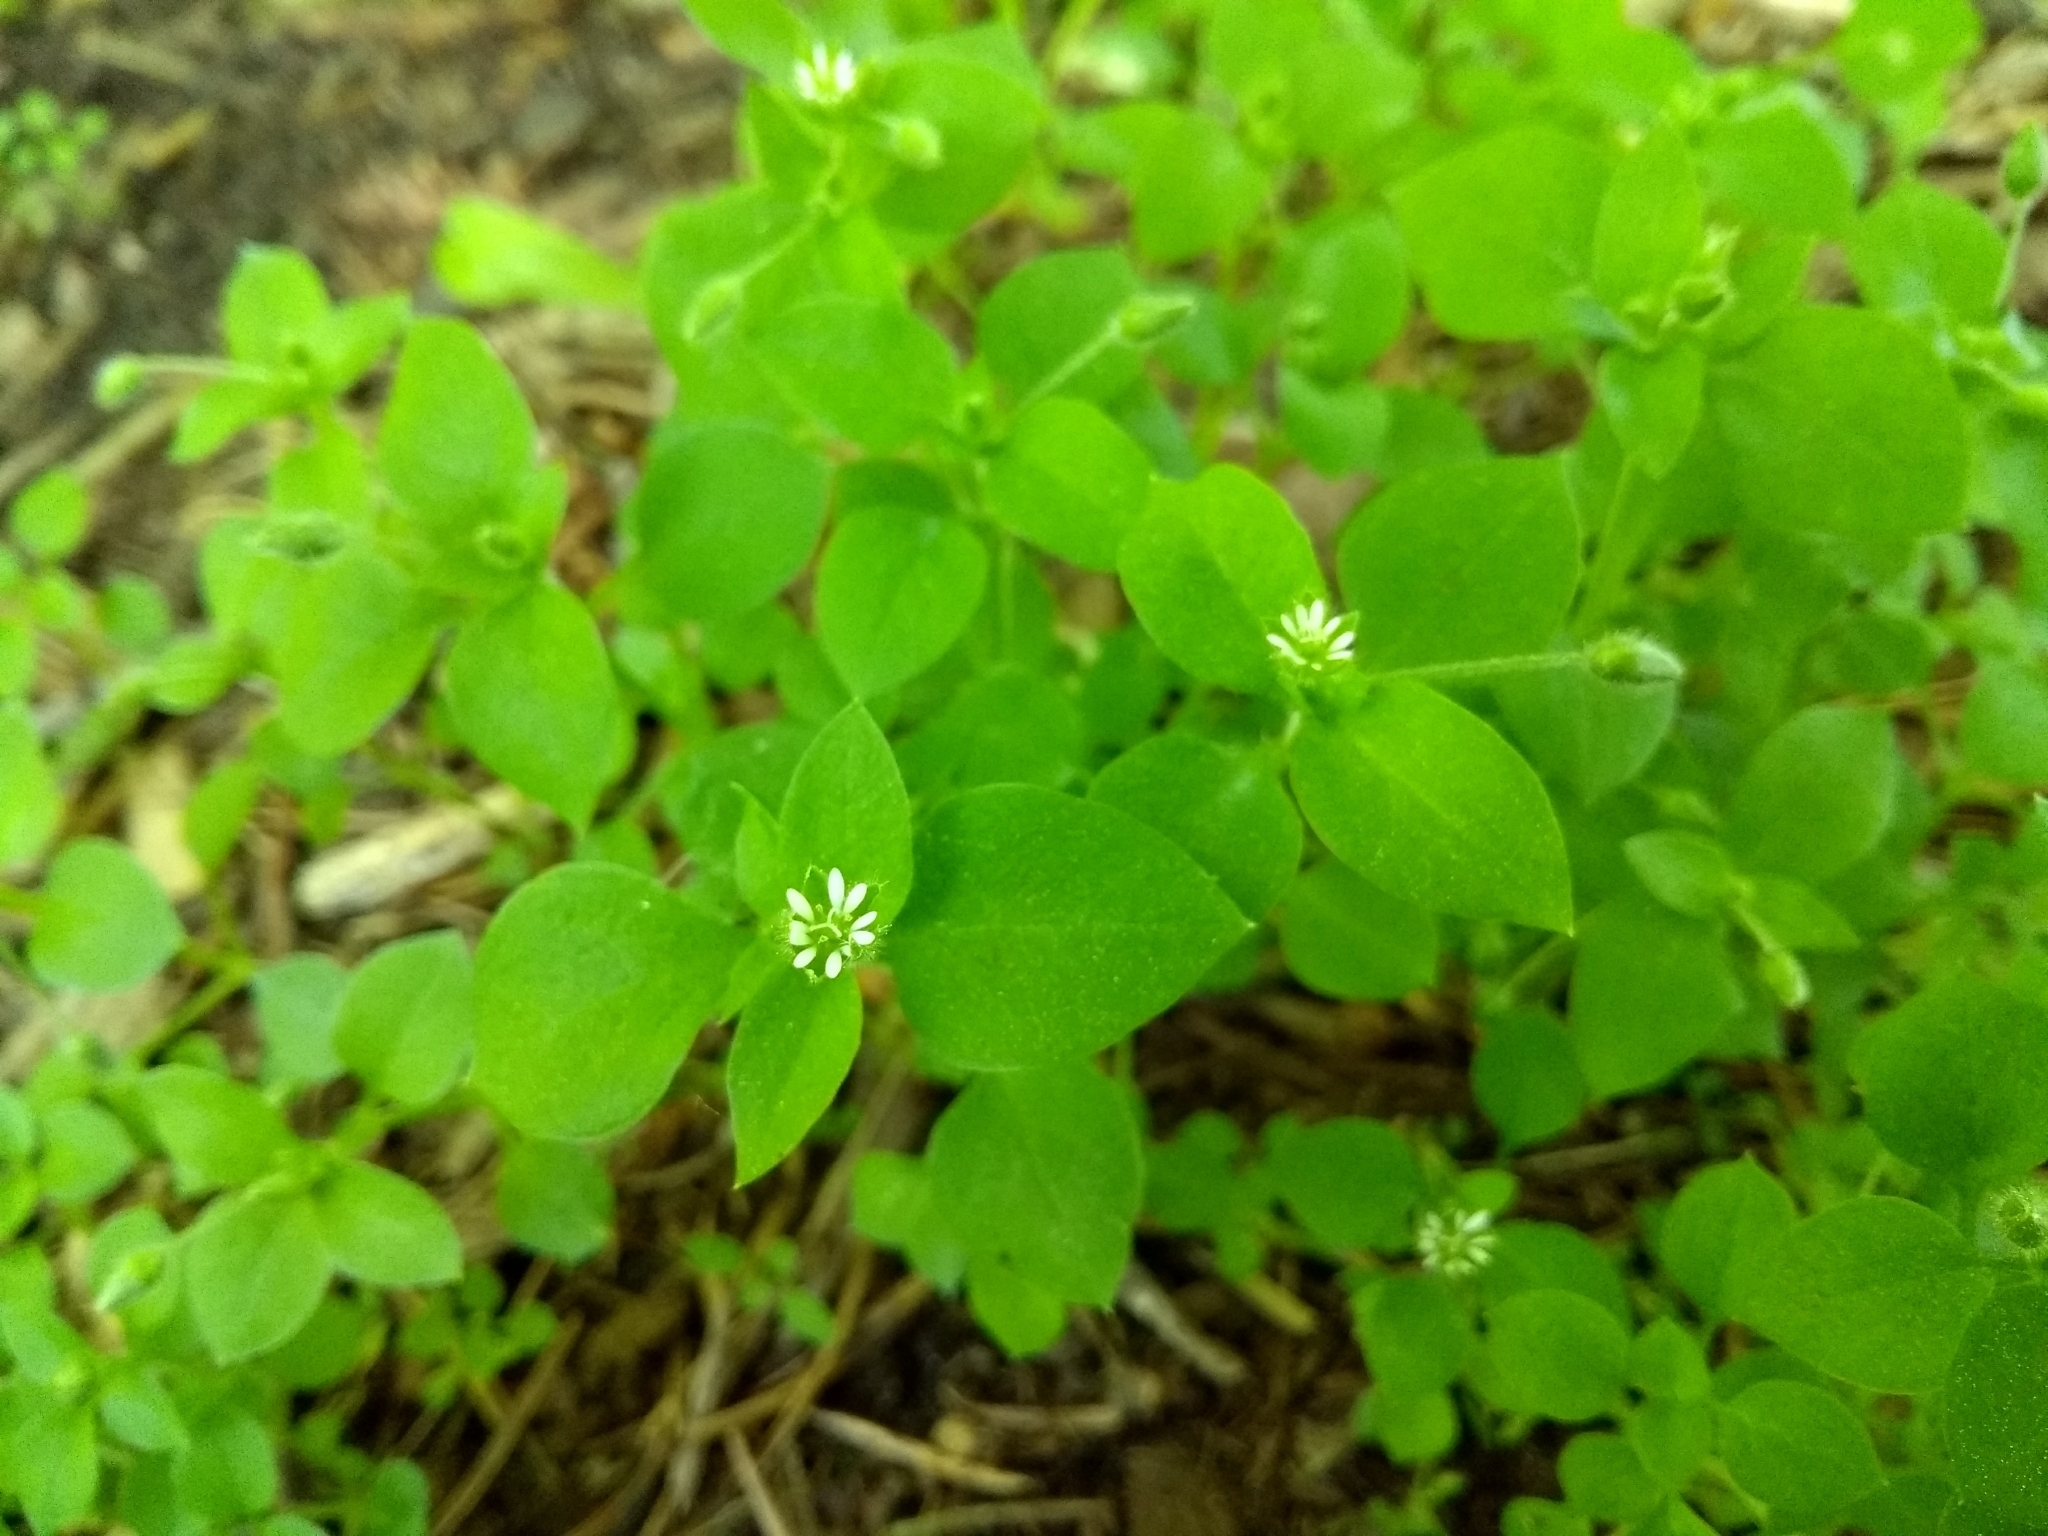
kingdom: Plantae
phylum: Tracheophyta
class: Magnoliopsida
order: Caryophyllales
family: Caryophyllaceae
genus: Stellaria
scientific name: Stellaria media
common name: Common chickweed
